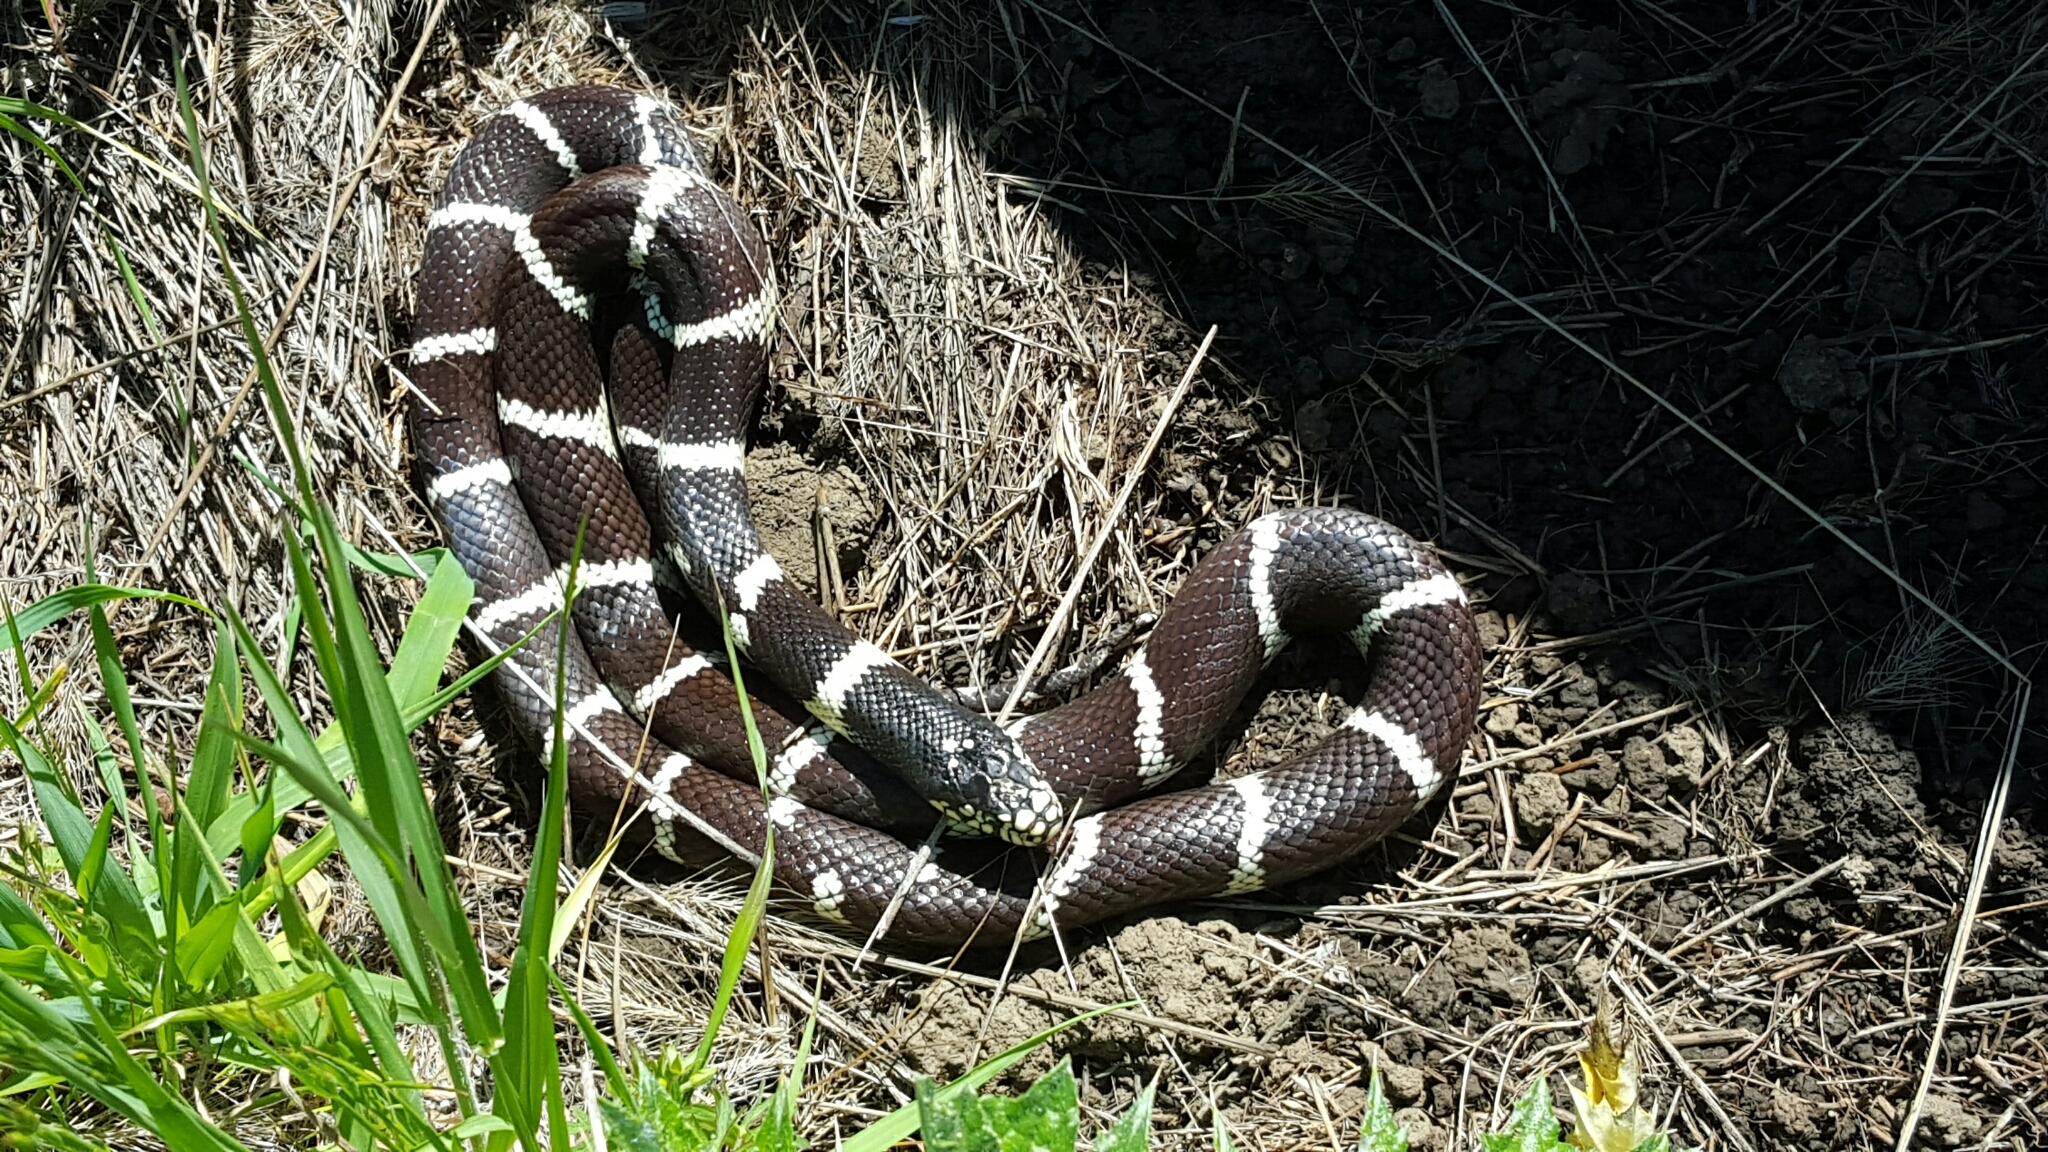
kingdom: Animalia
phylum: Chordata
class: Squamata
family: Colubridae
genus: Lampropeltis
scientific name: Lampropeltis californiae
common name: California kingsnake
